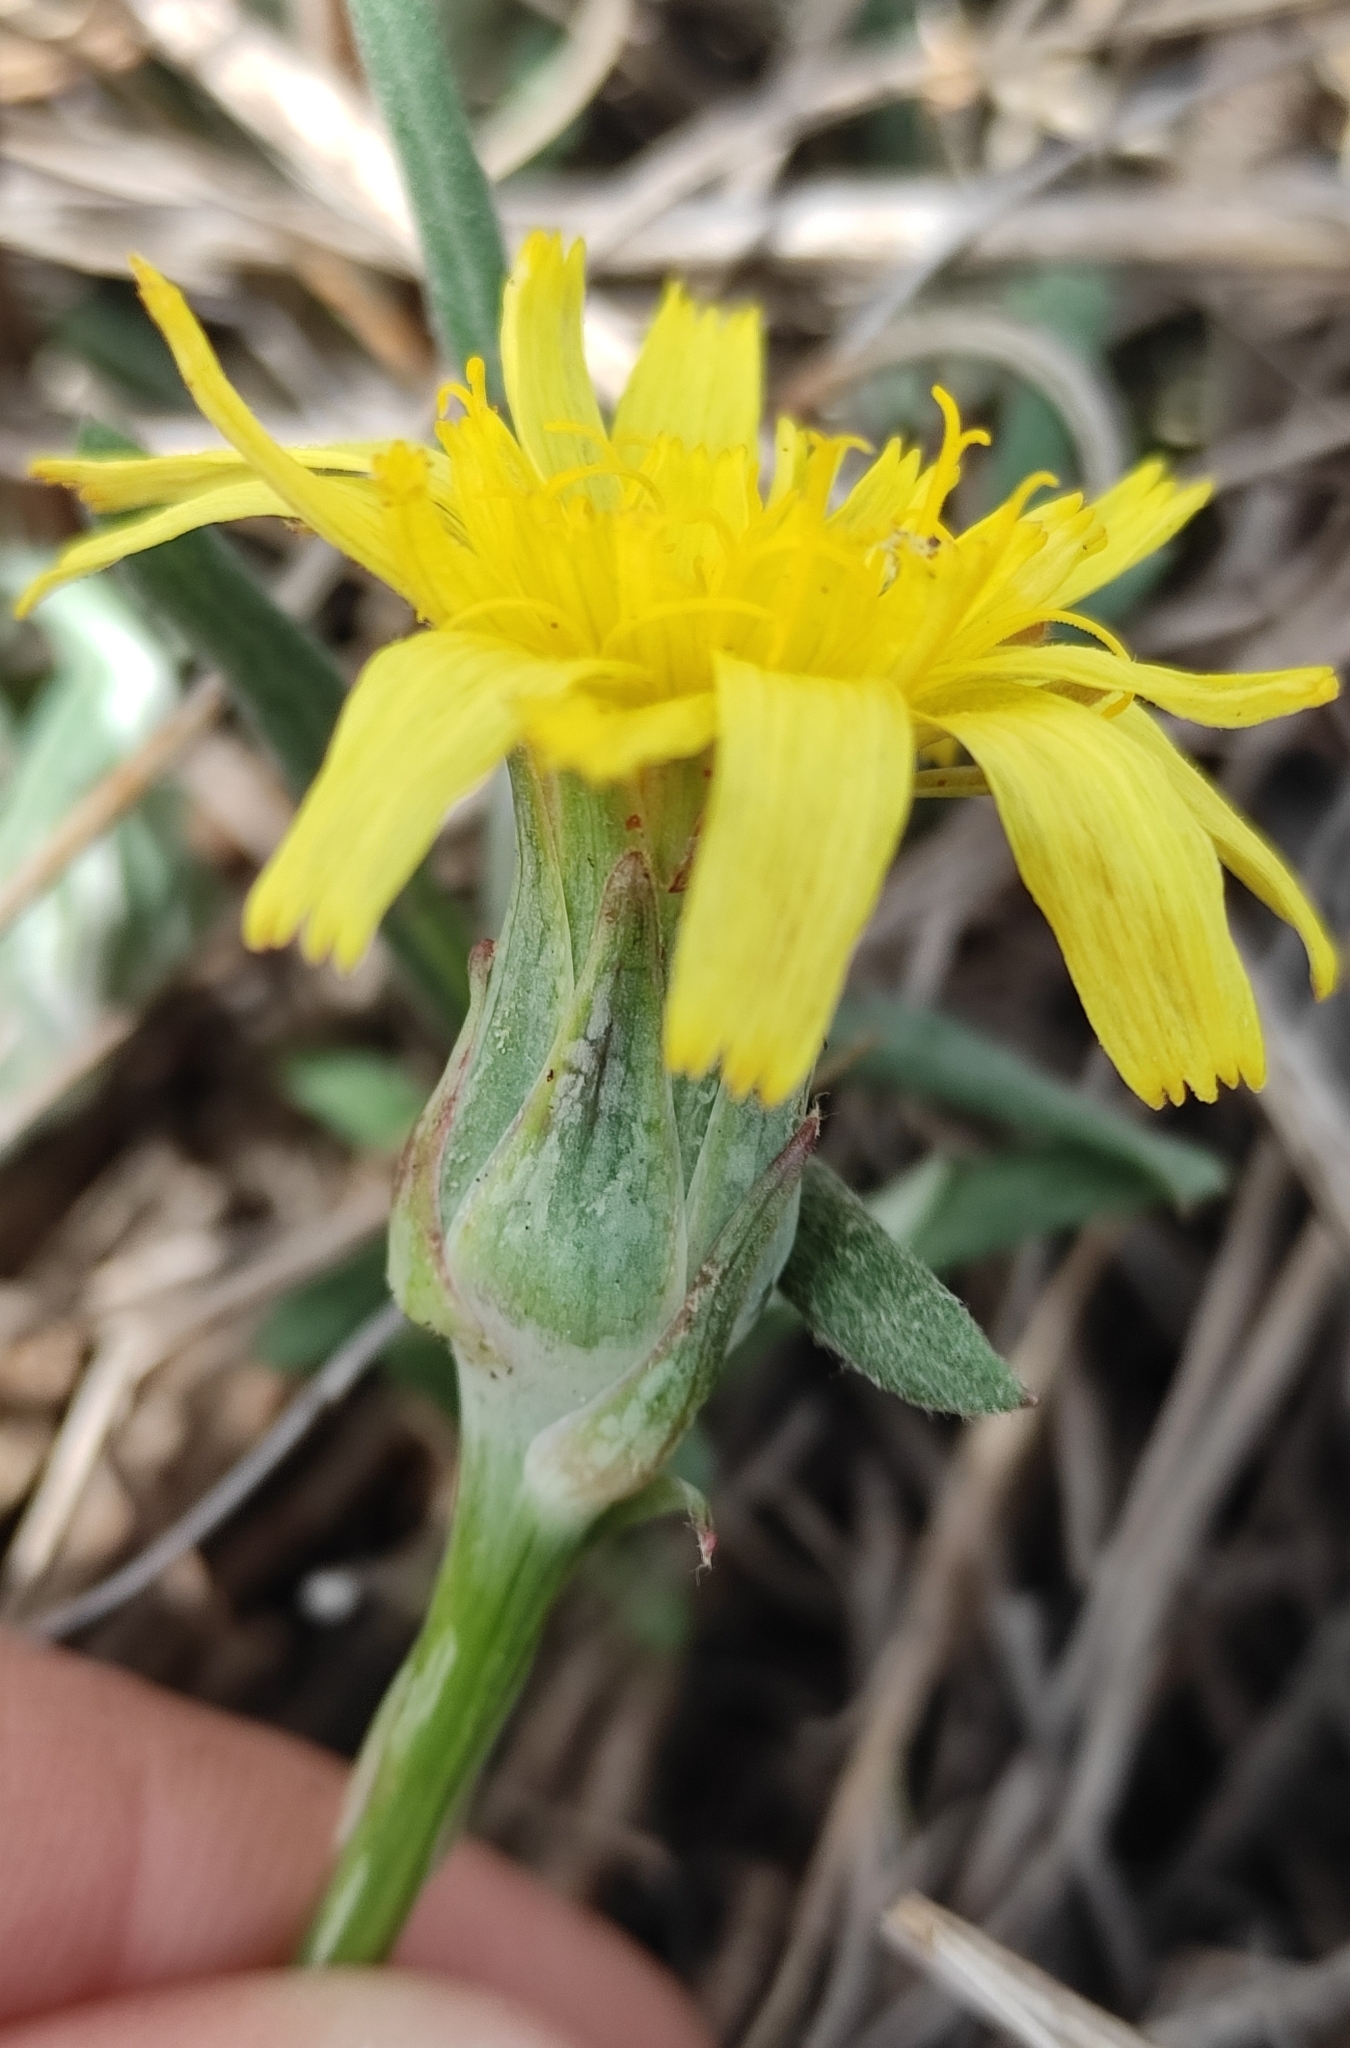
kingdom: Plantae
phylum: Tracheophyta
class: Magnoliopsida
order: Asterales
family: Asteraceae
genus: Takhtajaniantha
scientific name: Takhtajaniantha austriaca
